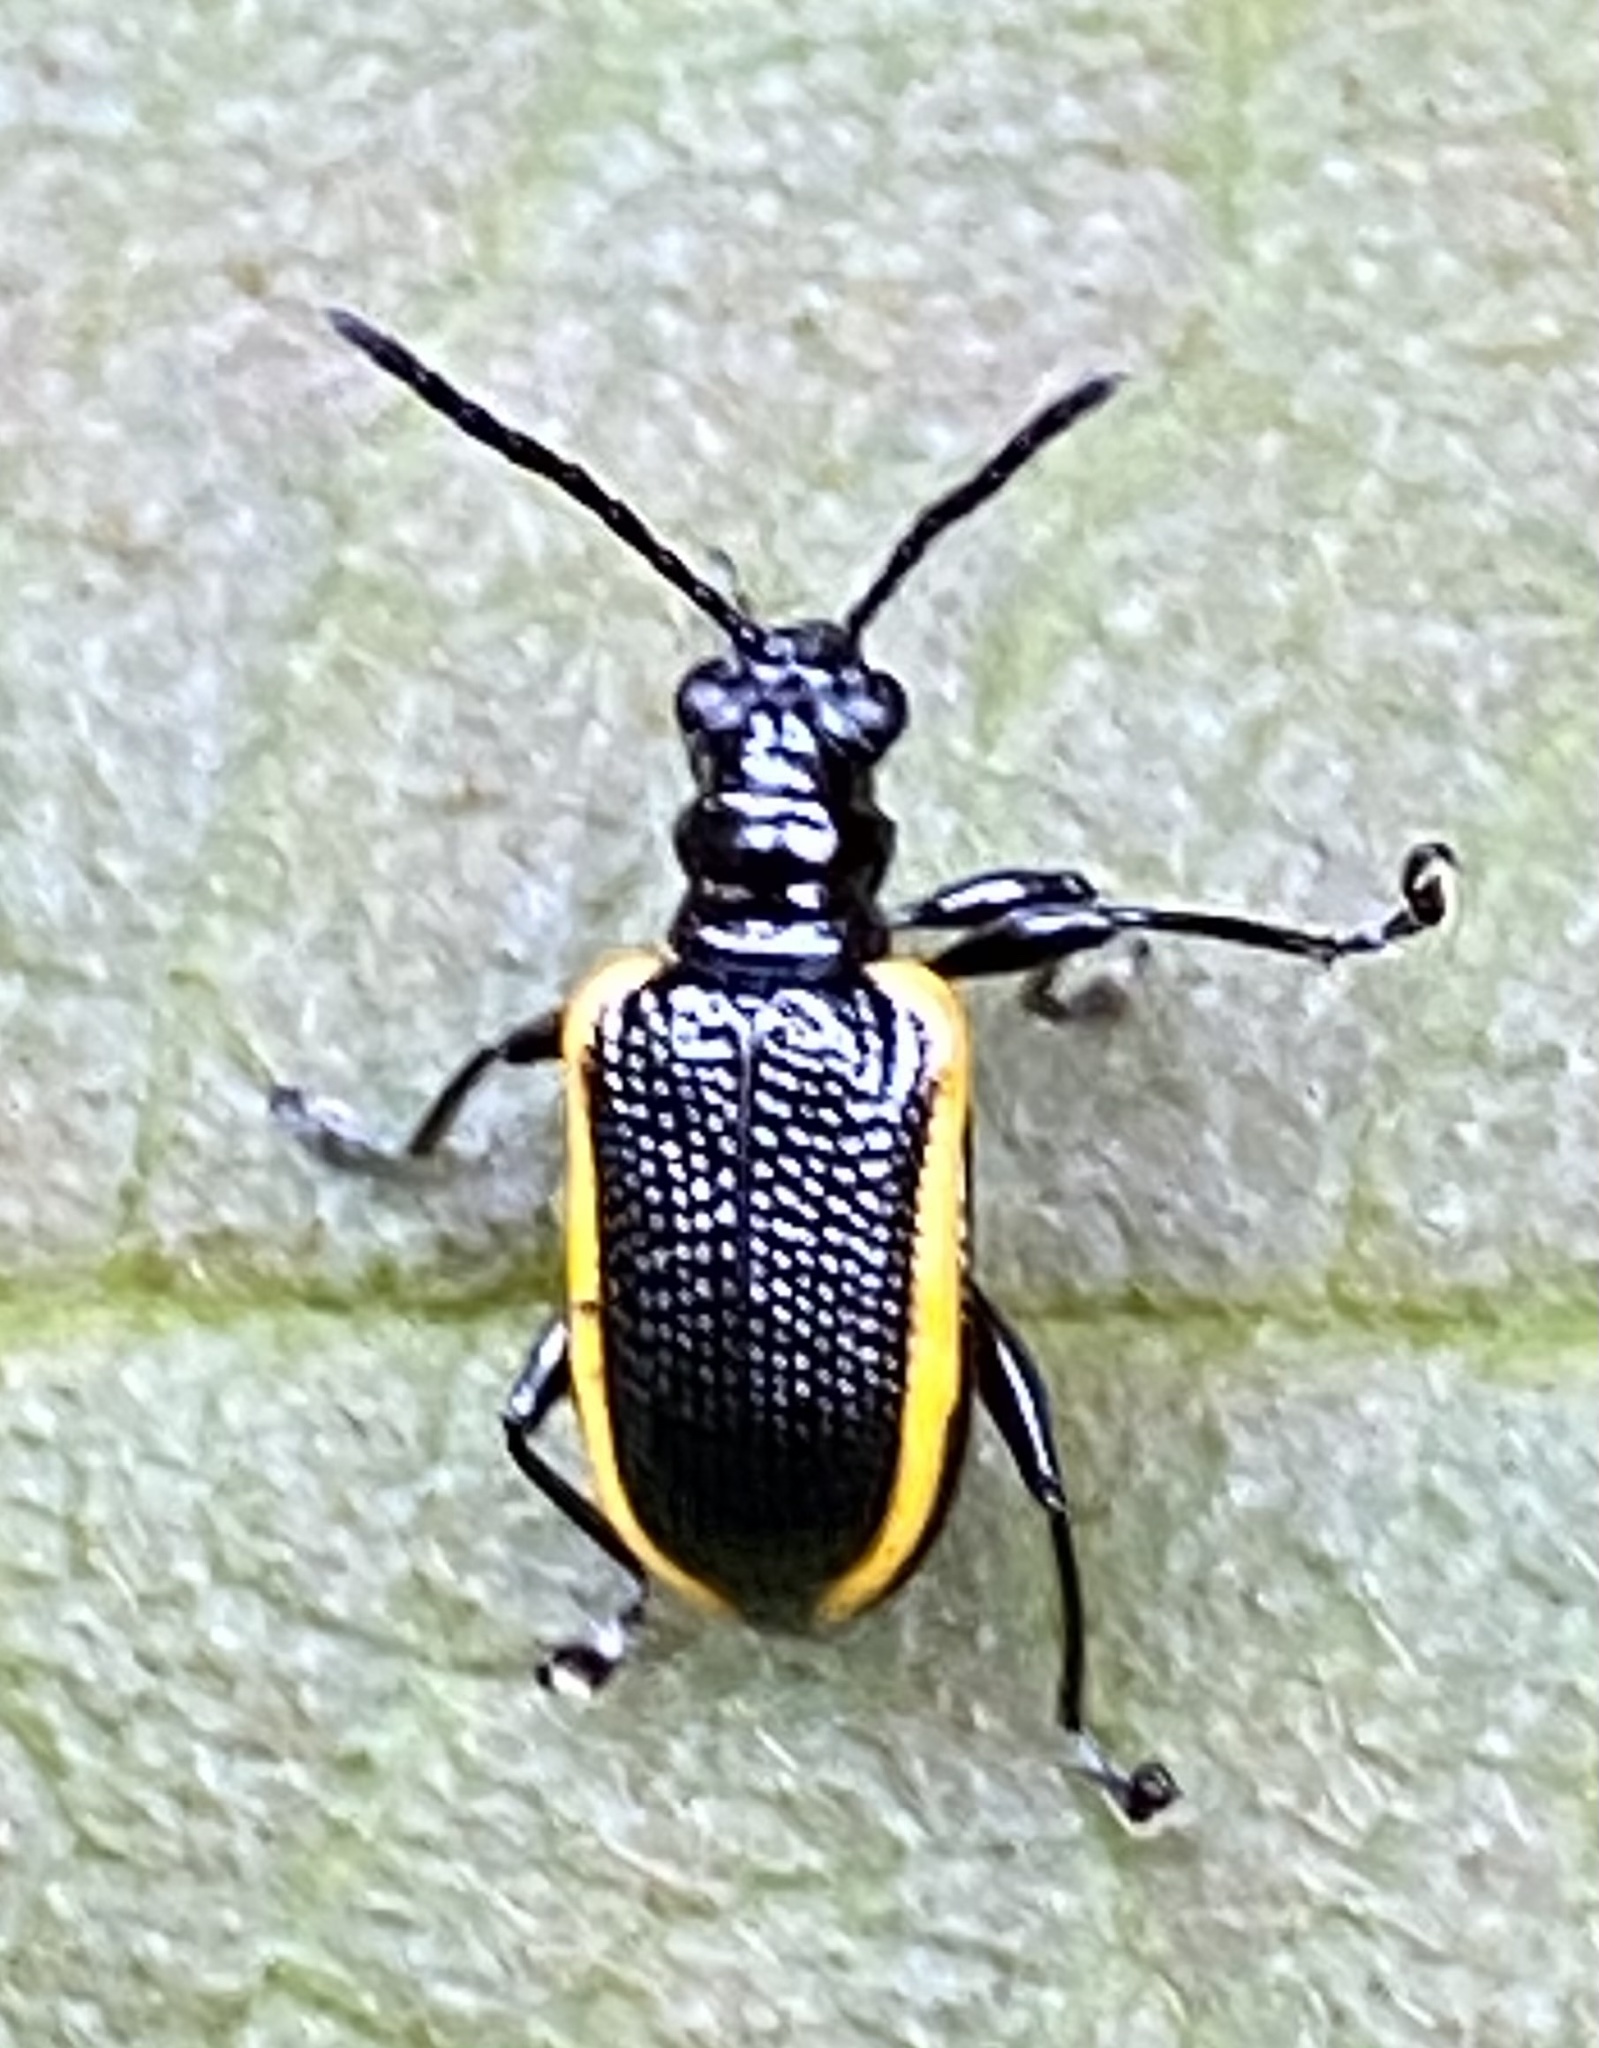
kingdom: Animalia
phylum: Arthropoda
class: Insecta
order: Coleoptera
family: Chrysomelidae
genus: Neolema
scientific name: Neolema
